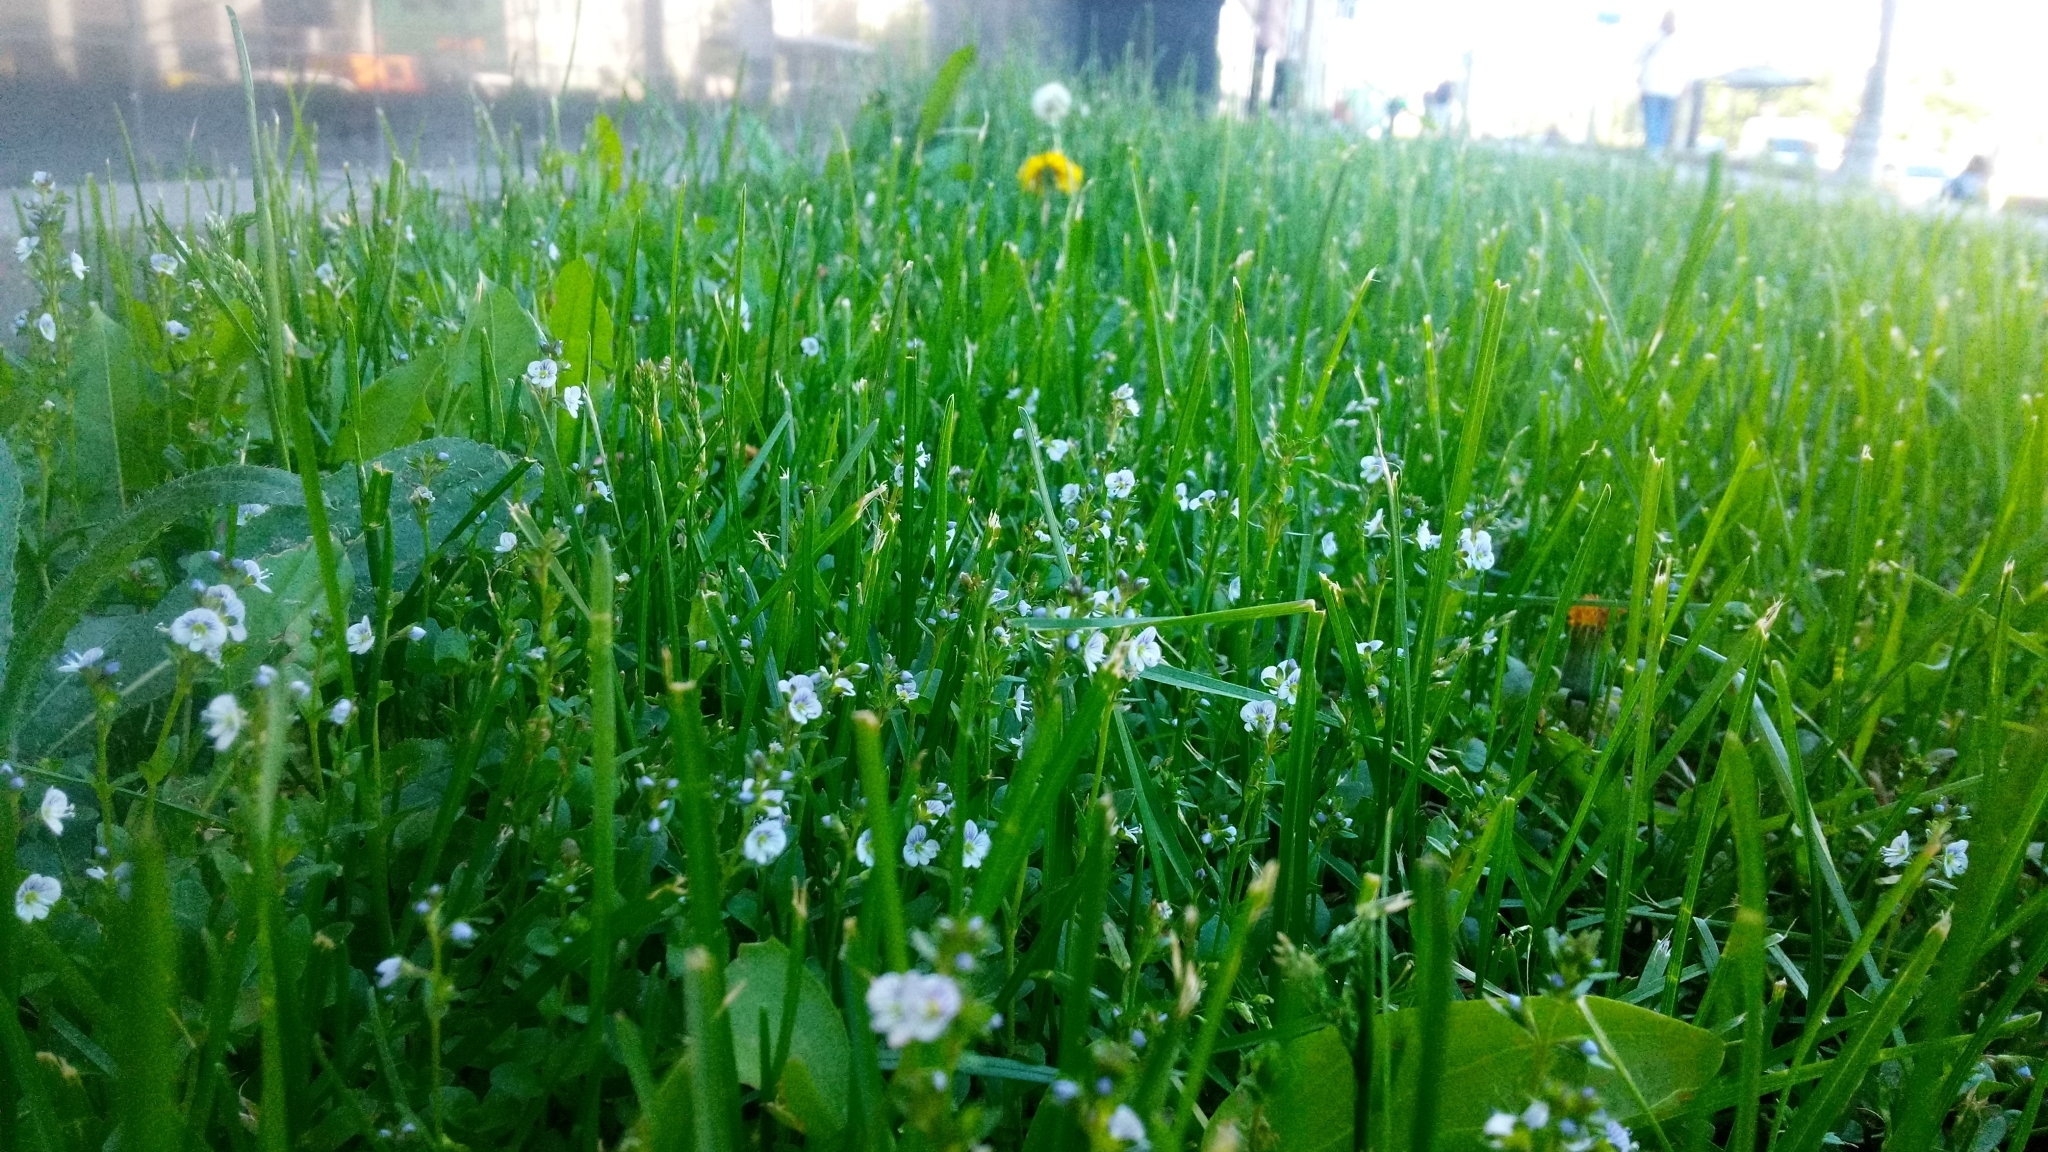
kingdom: Plantae
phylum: Tracheophyta
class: Magnoliopsida
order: Lamiales
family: Plantaginaceae
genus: Veronica
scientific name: Veronica serpyllifolia
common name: Thyme-leaved speedwell
